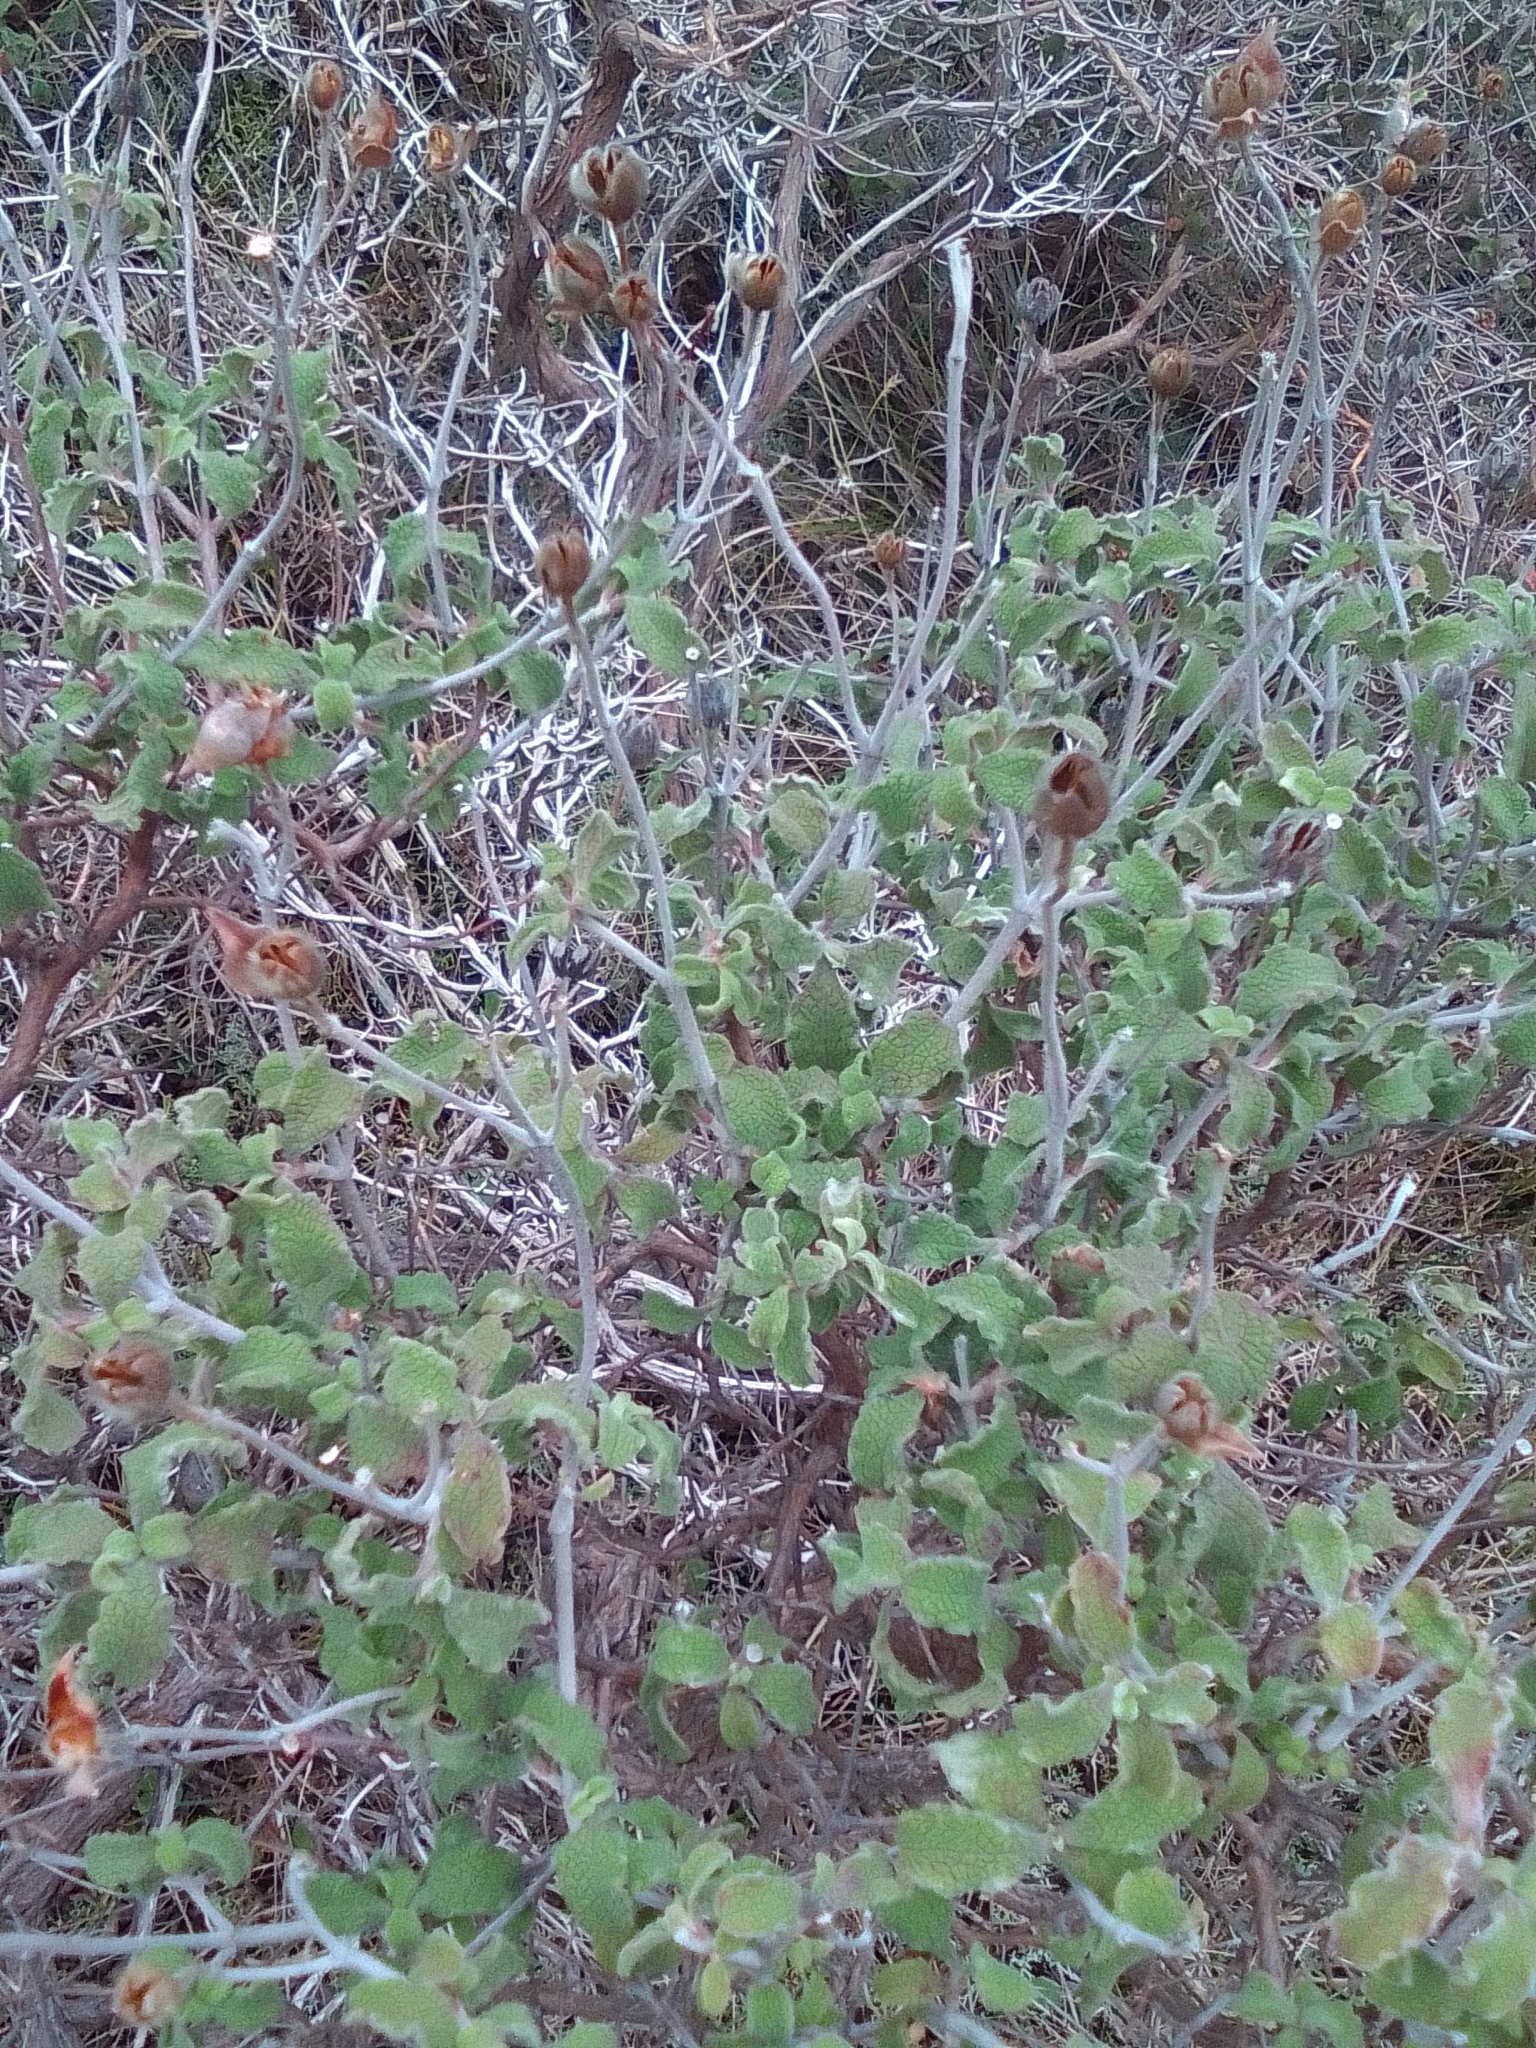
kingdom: Plantae
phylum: Tracheophyta
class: Magnoliopsida
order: Malvales
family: Cistaceae
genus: Cistus
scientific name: Cistus tauricus
